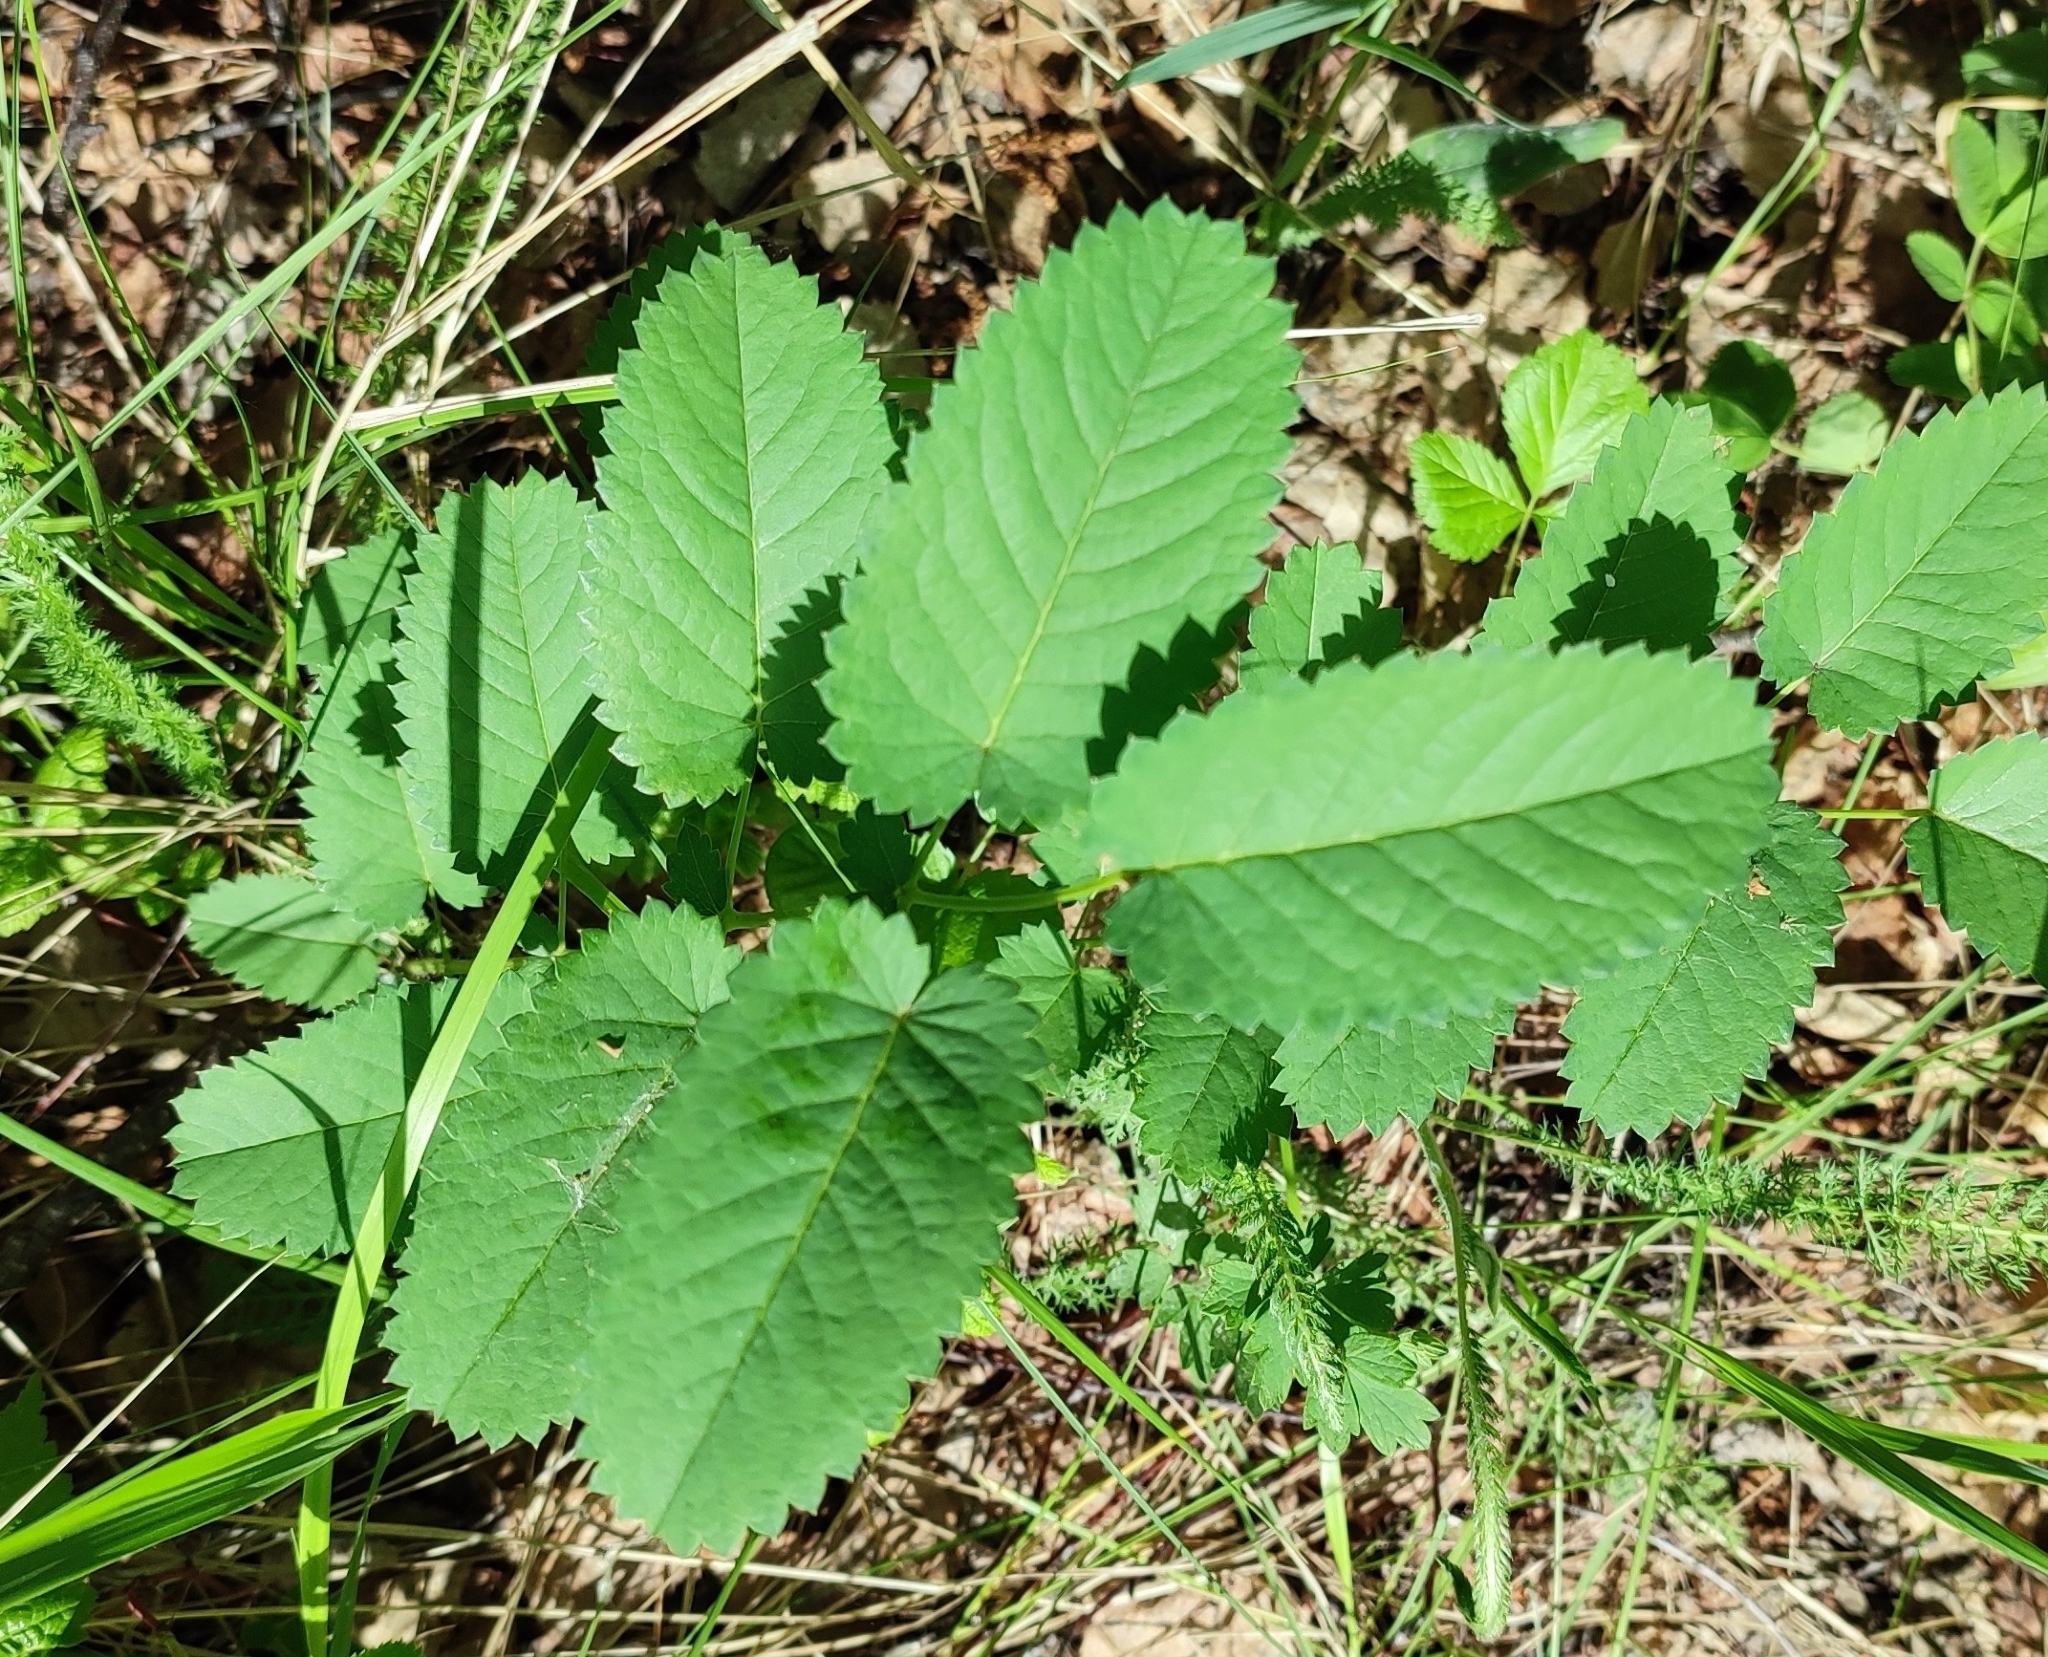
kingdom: Plantae
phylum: Tracheophyta
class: Magnoliopsida
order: Rosales
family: Rosaceae
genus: Sanguisorba
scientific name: Sanguisorba officinalis
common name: Great burnet
